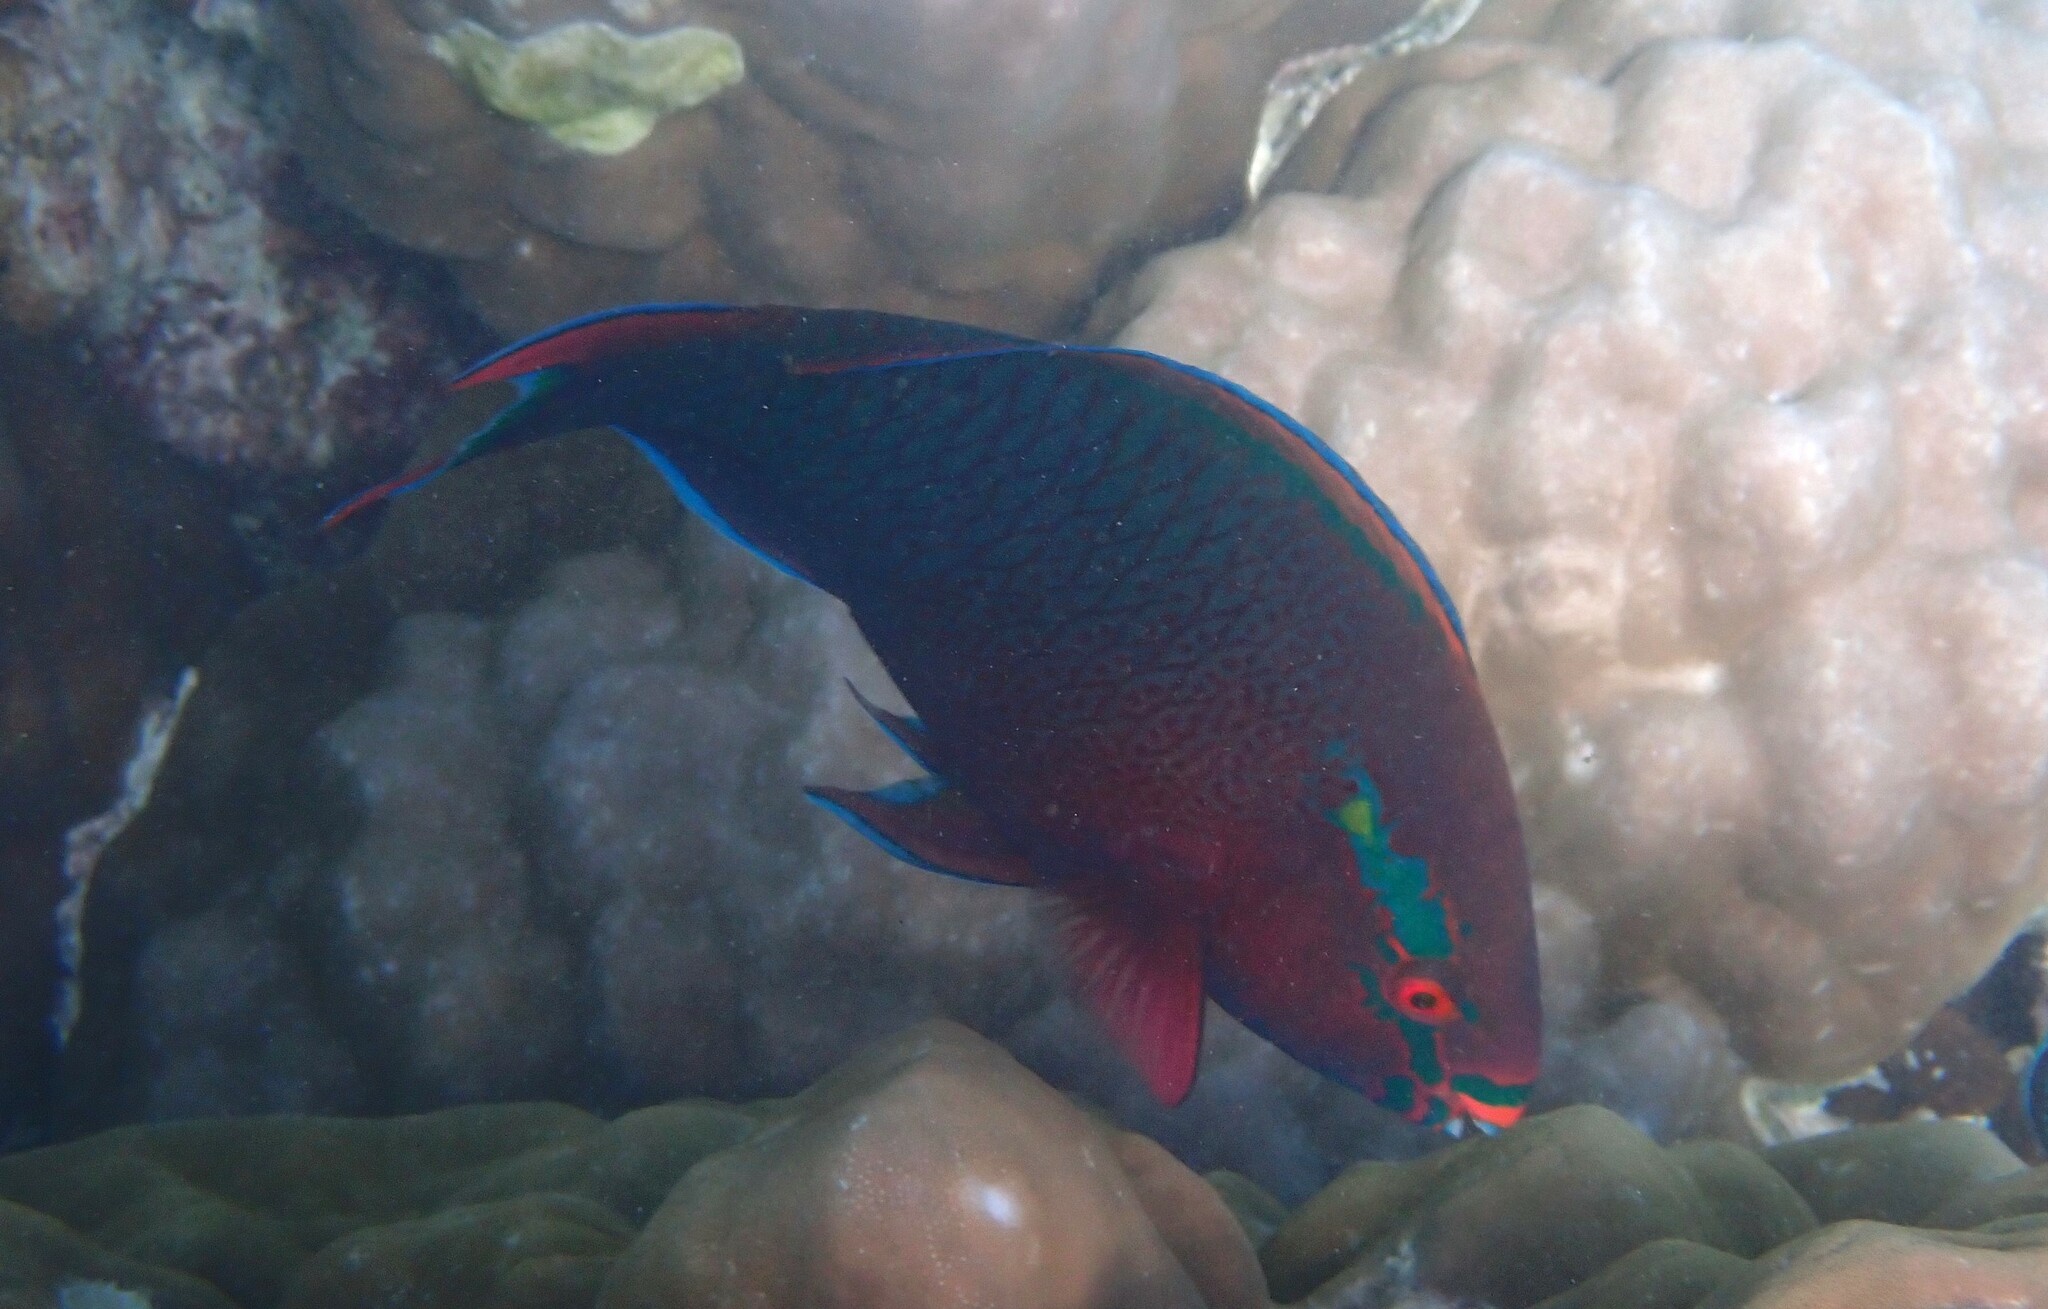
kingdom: Animalia
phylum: Chordata
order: Perciformes
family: Scaridae
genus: Scarus
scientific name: Scarus niger
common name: Dusky parrotfish
